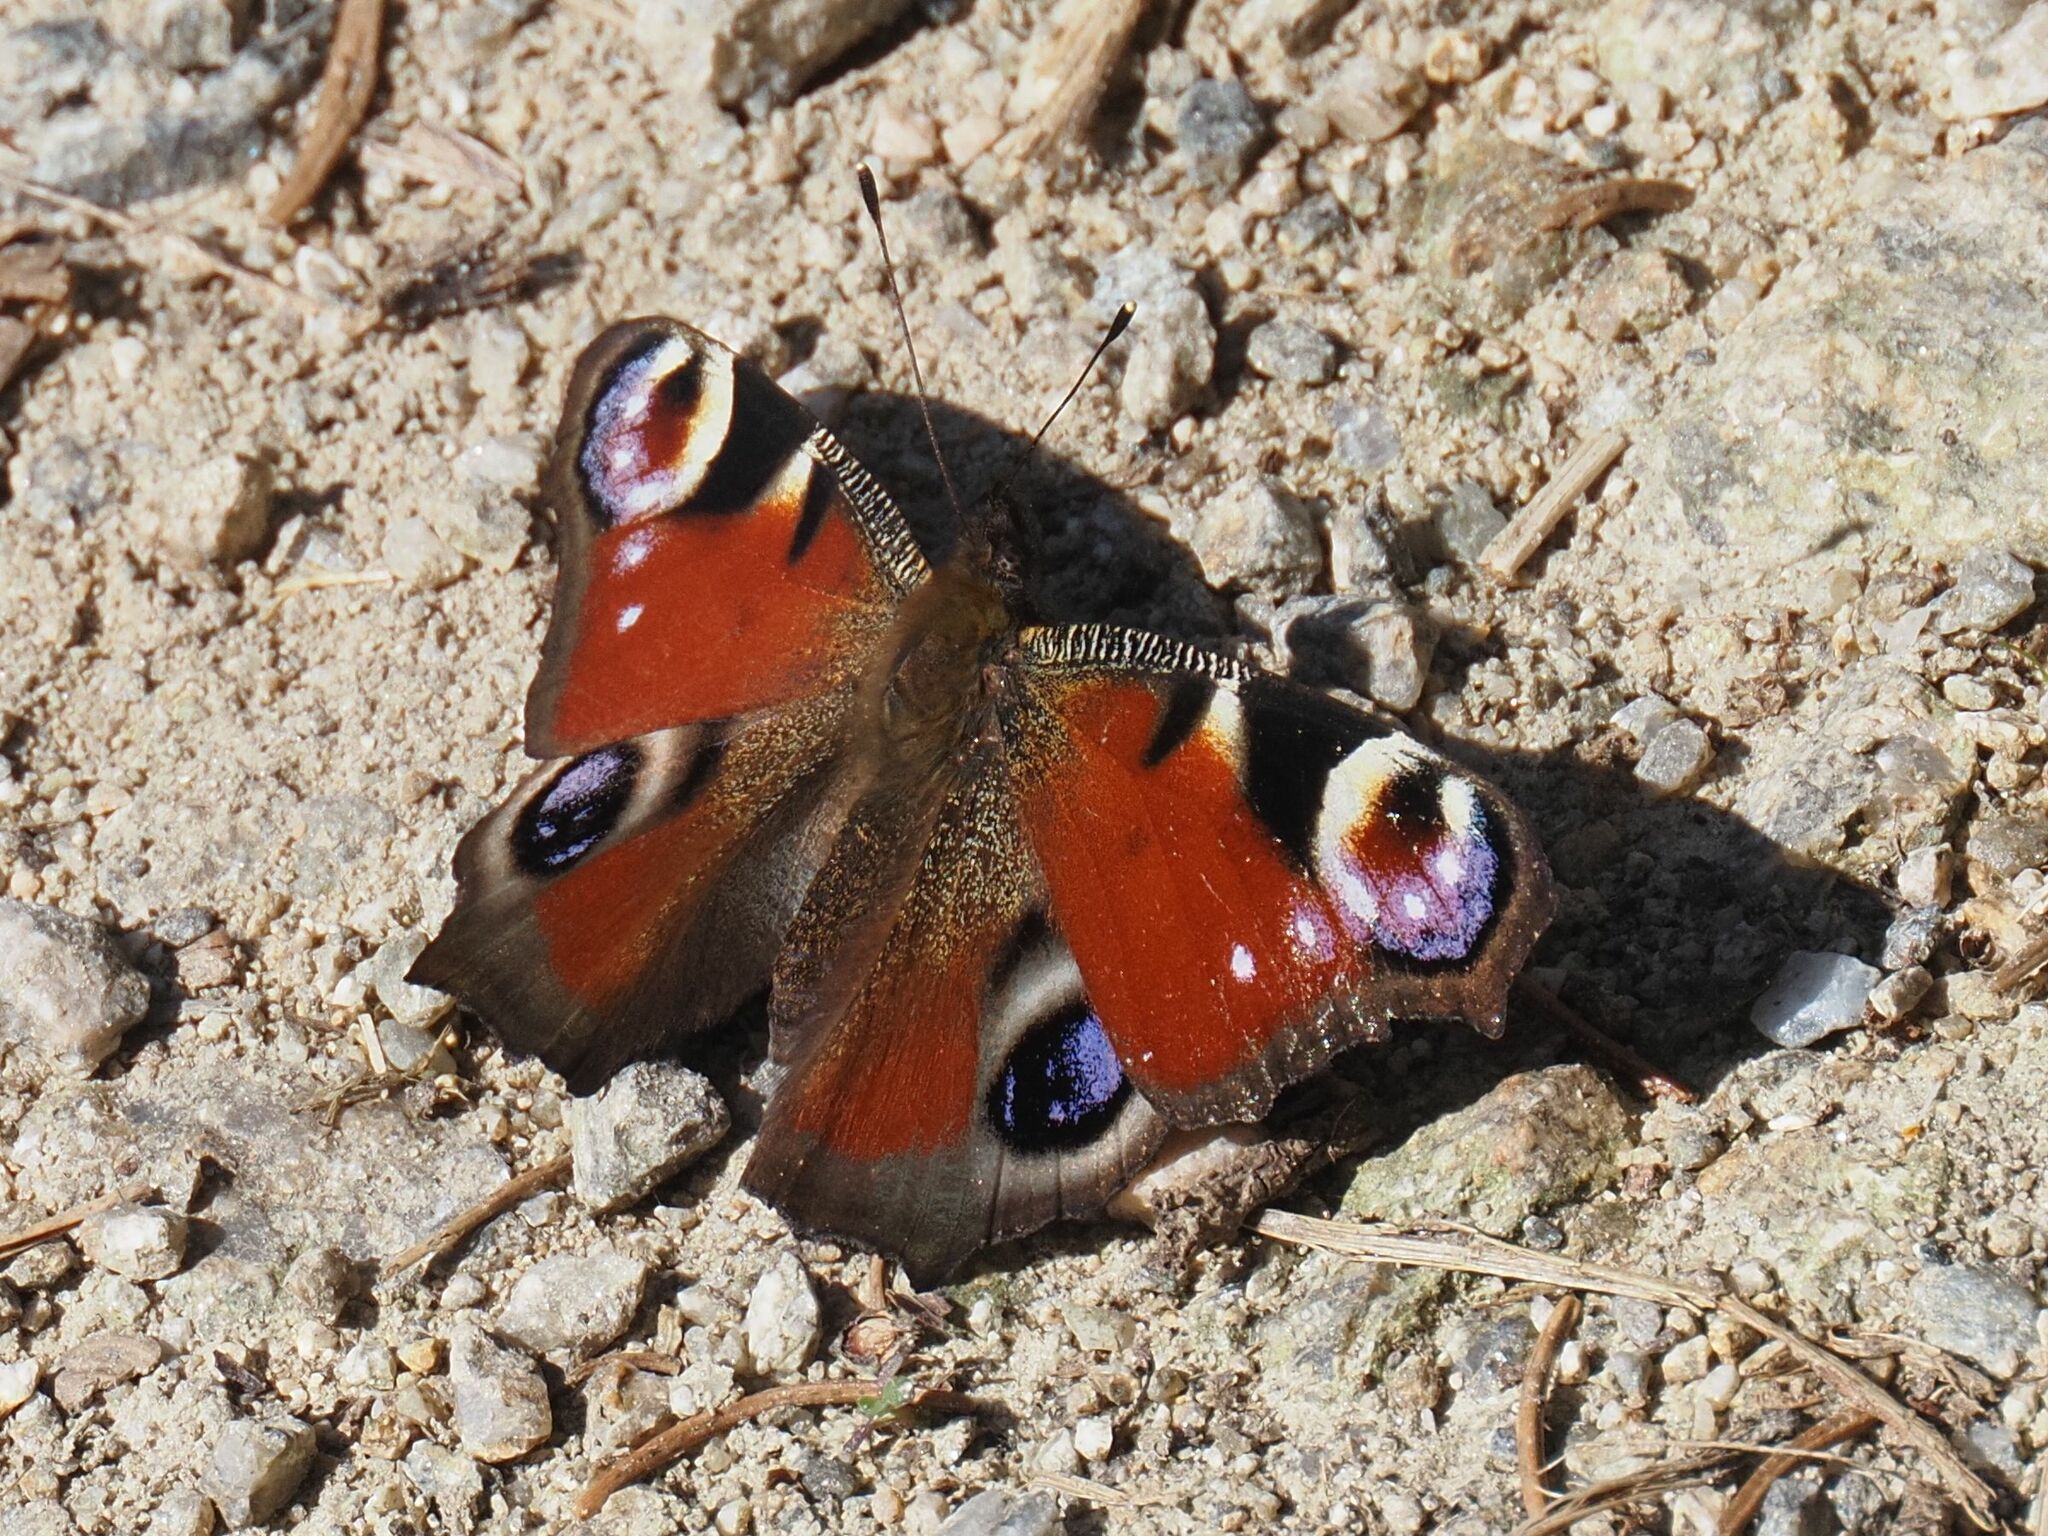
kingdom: Animalia
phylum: Arthropoda
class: Insecta
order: Lepidoptera
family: Nymphalidae
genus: Aglais
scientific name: Aglais io
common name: Peacock
